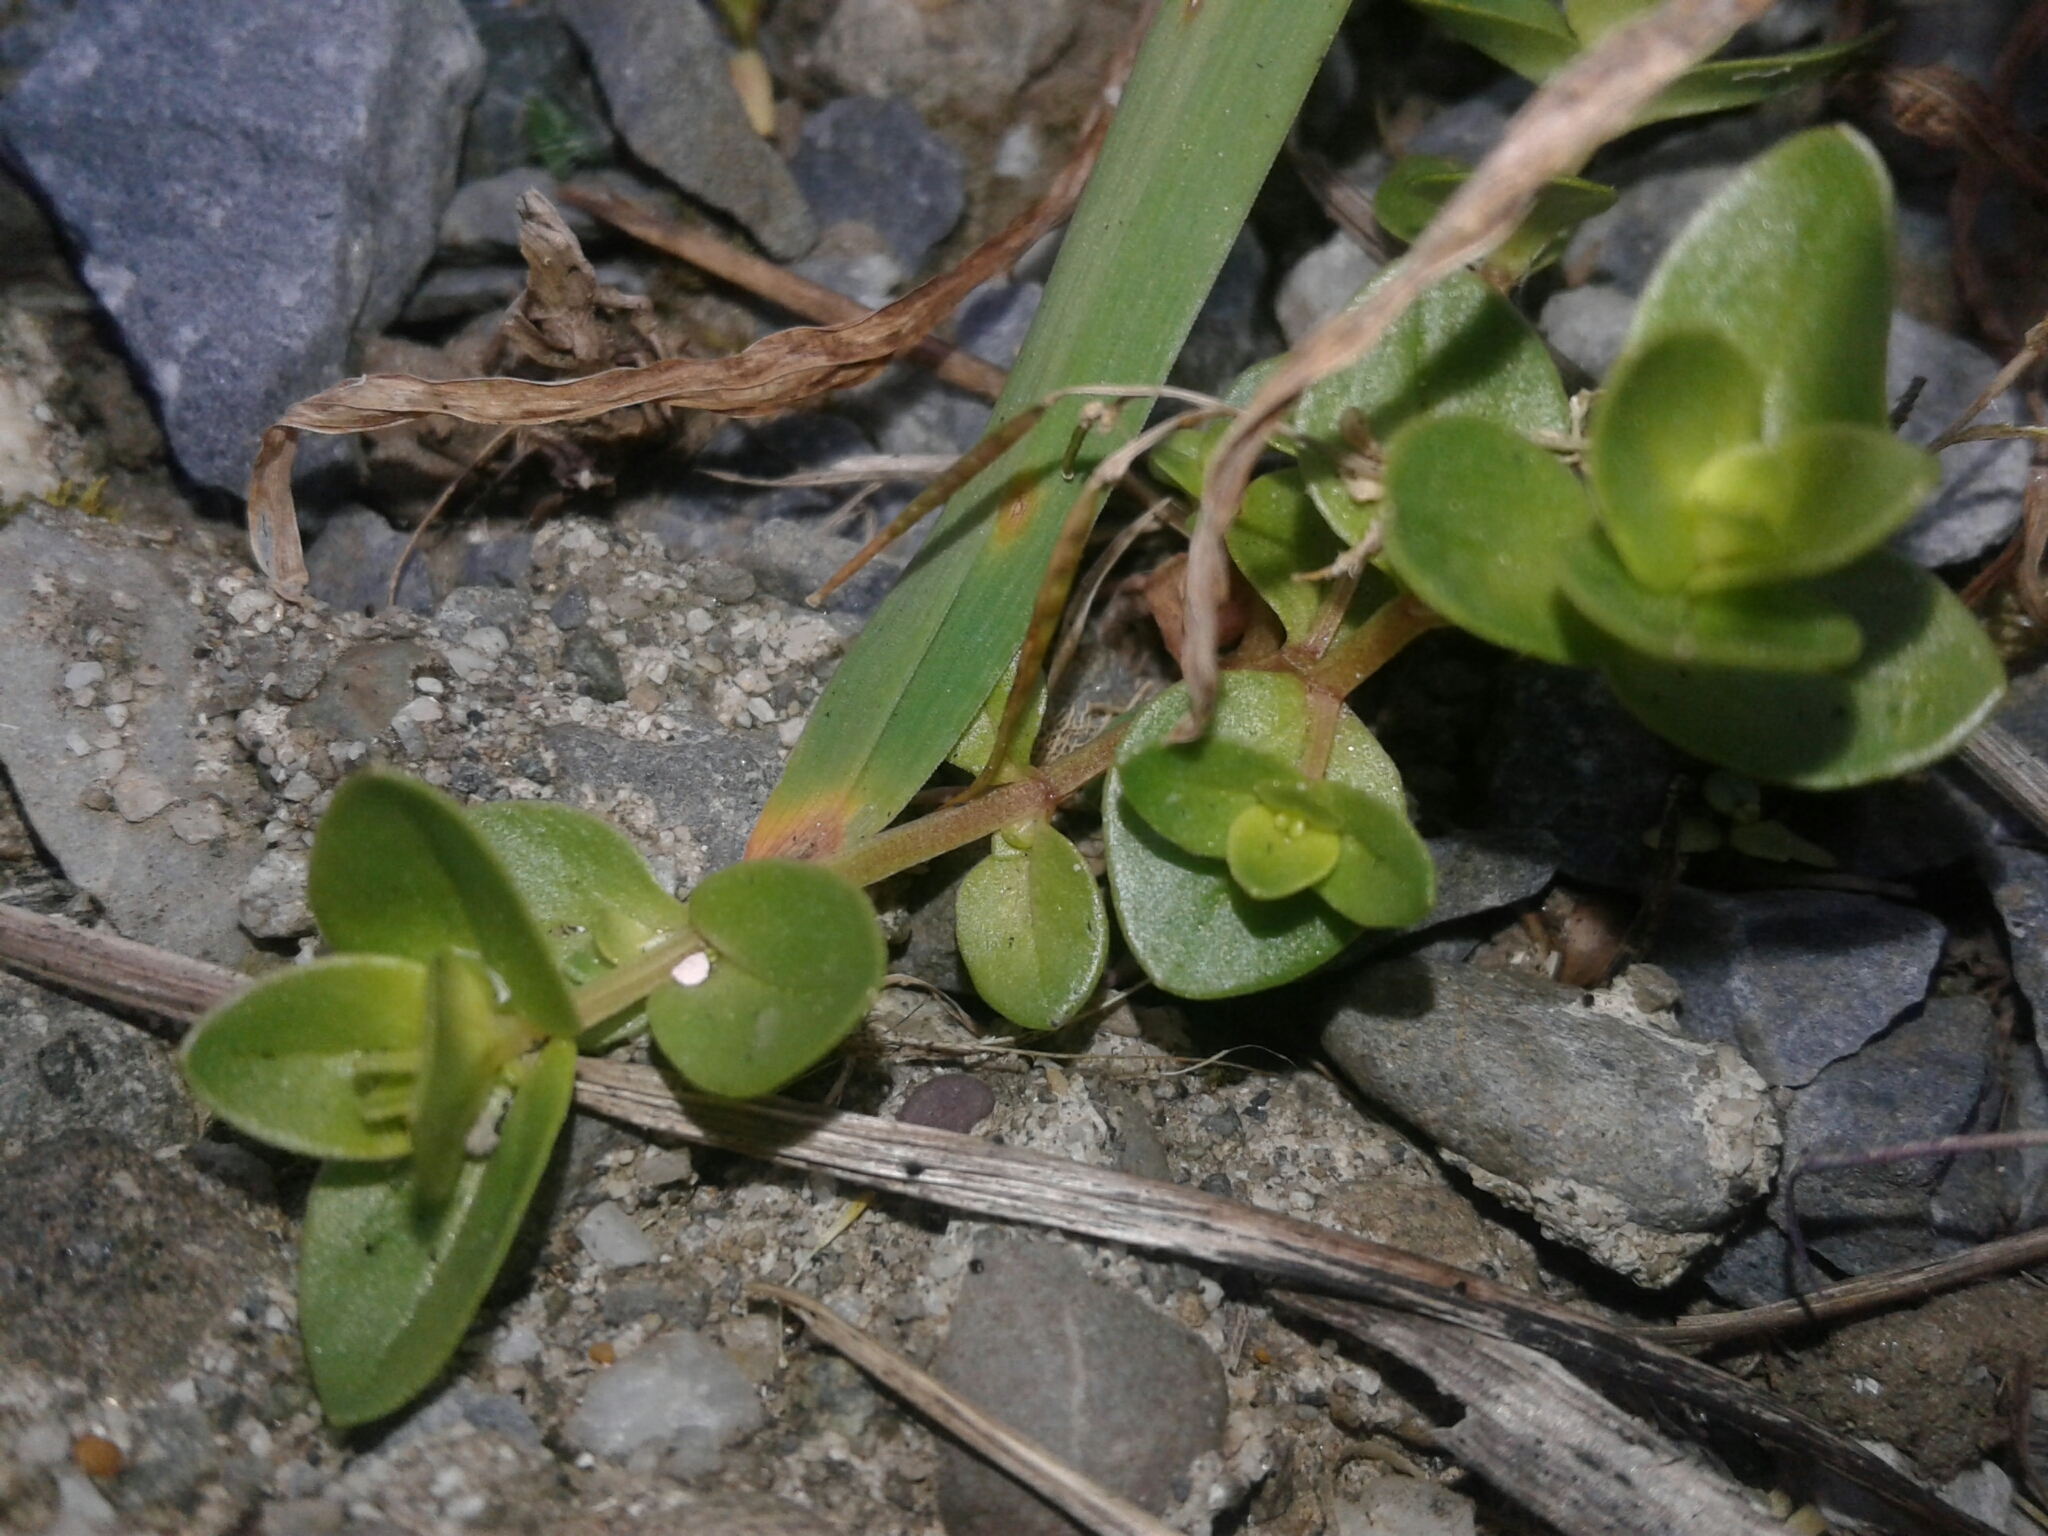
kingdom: Plantae
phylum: Tracheophyta
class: Magnoliopsida
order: Ericales
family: Primulaceae
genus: Lysimachia
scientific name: Lysimachia arvensis
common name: Scarlet pimpernel
